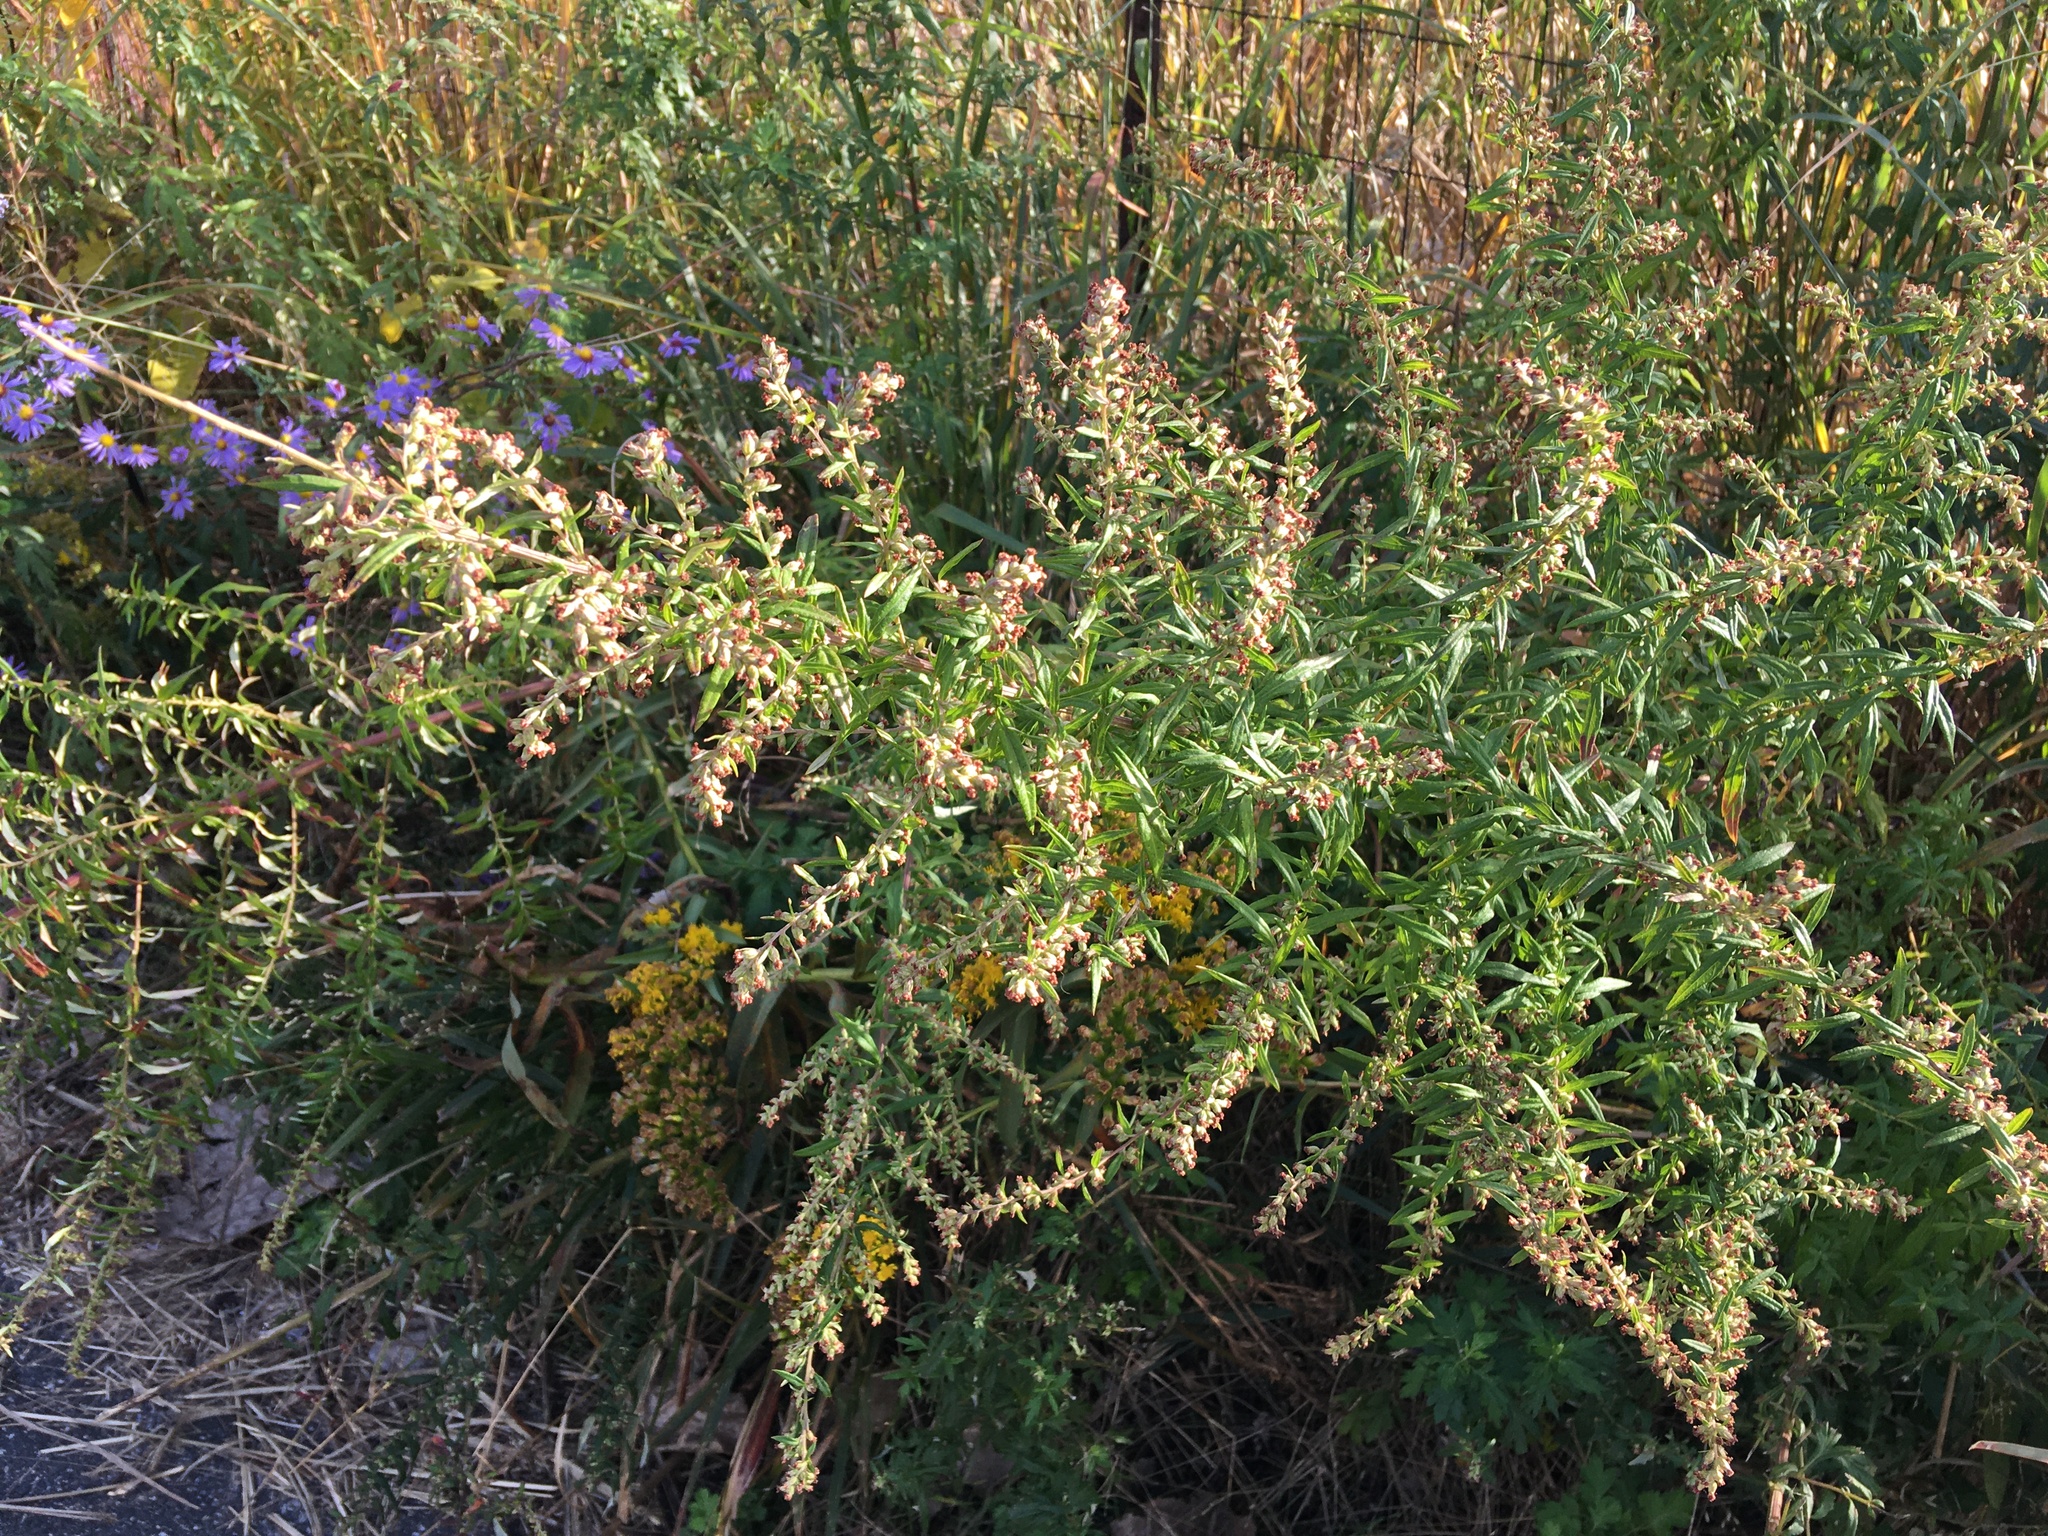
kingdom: Plantae
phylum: Tracheophyta
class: Magnoliopsida
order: Asterales
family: Asteraceae
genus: Artemisia
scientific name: Artemisia vulgaris
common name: Mugwort
